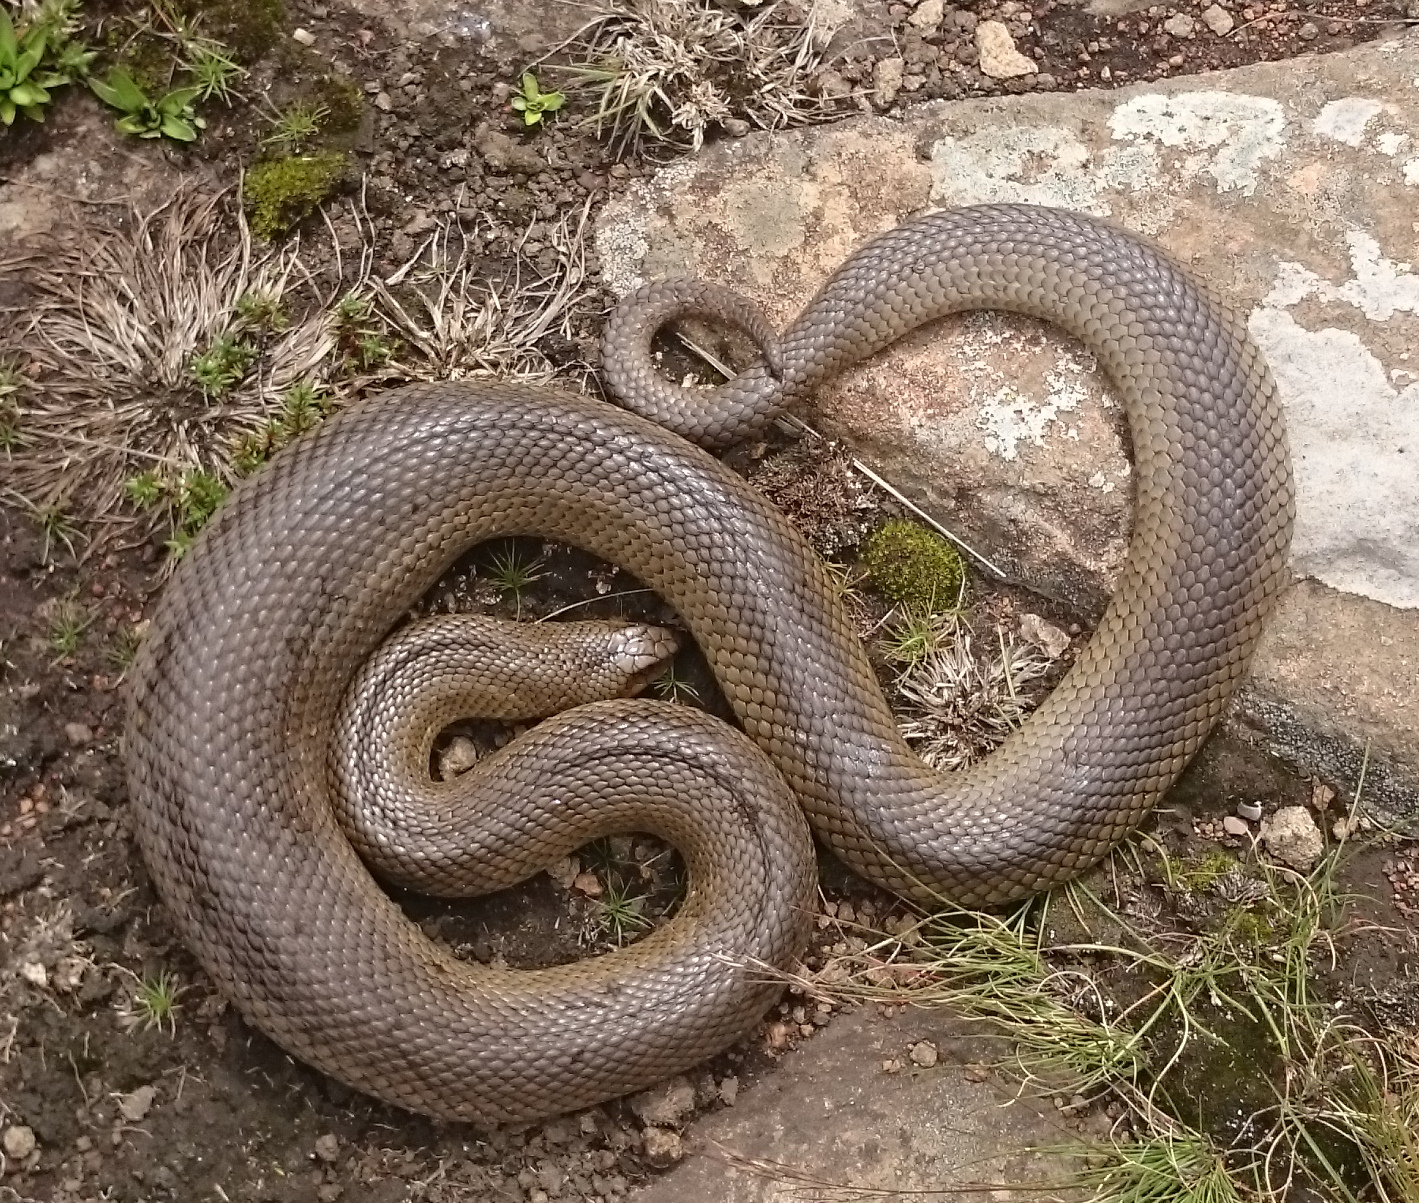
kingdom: Animalia
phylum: Chordata
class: Squamata
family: Pseudaspididae
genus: Pseudaspis
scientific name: Pseudaspis cana
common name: Mole snake
